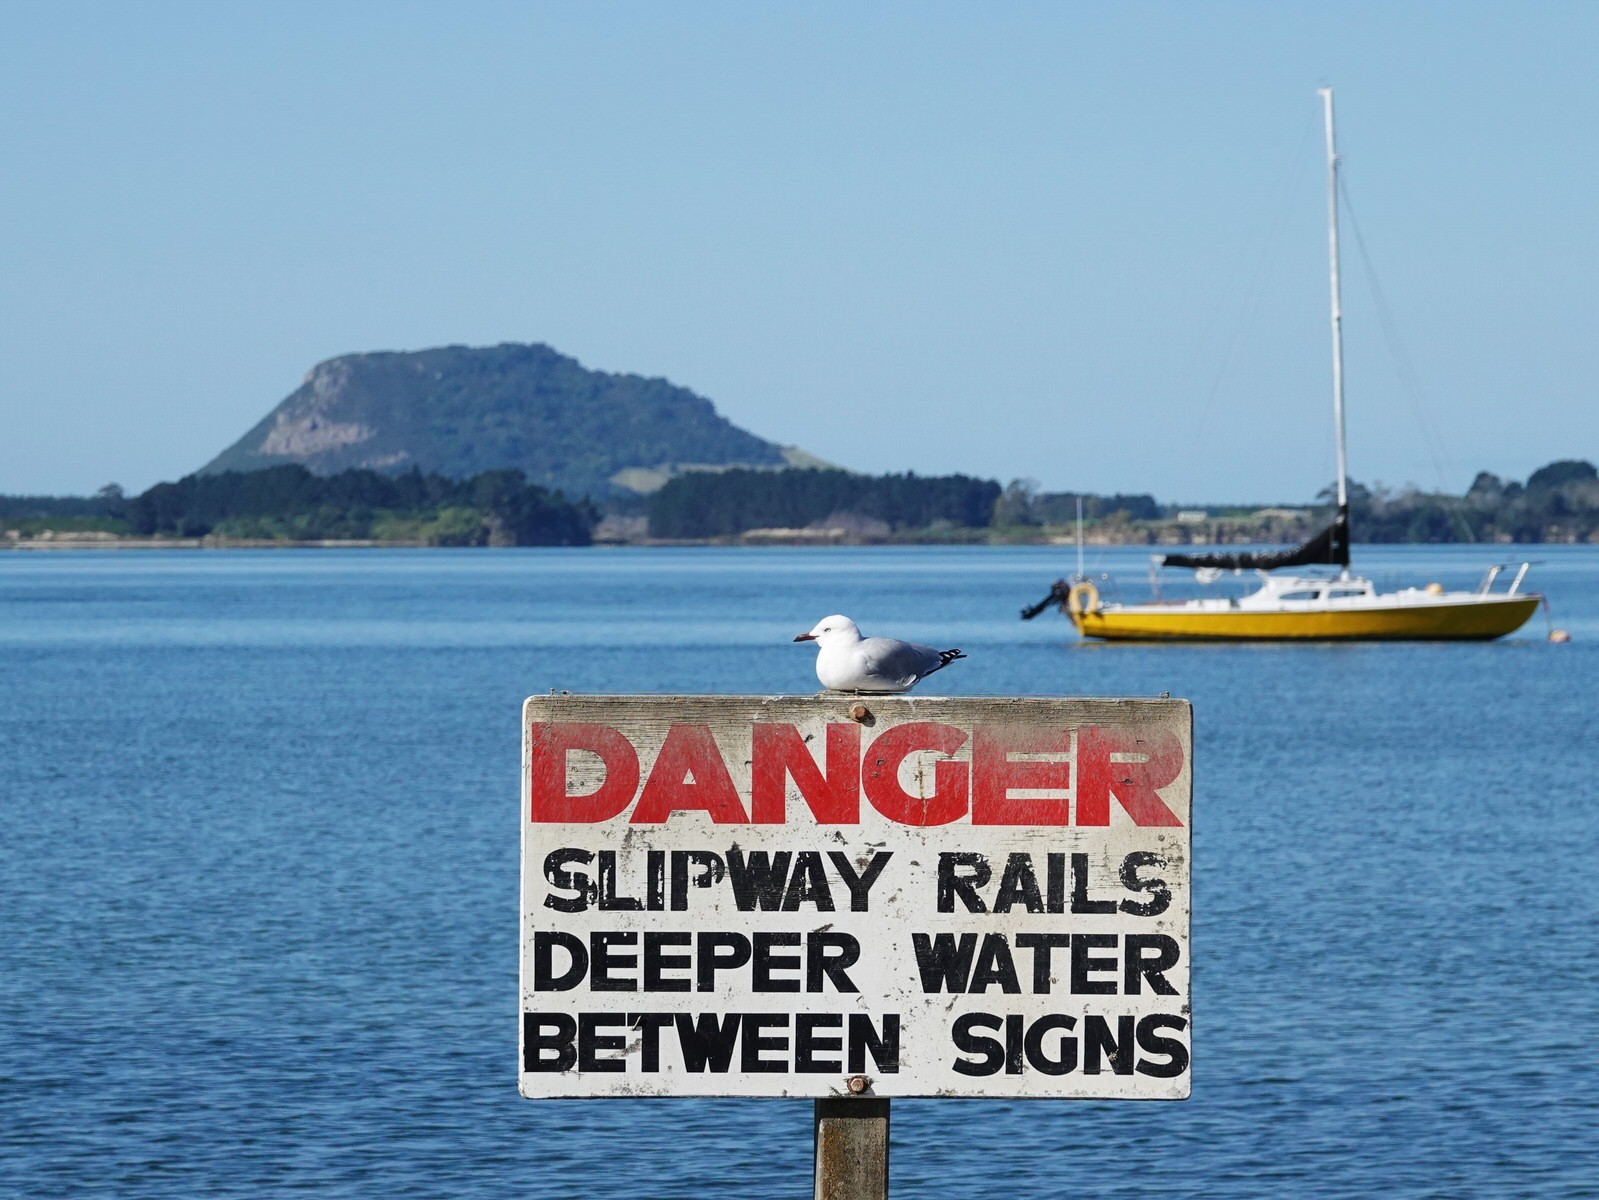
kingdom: Animalia
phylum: Chordata
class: Aves
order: Charadriiformes
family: Laridae
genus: Chroicocephalus
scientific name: Chroicocephalus novaehollandiae
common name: Silver gull
